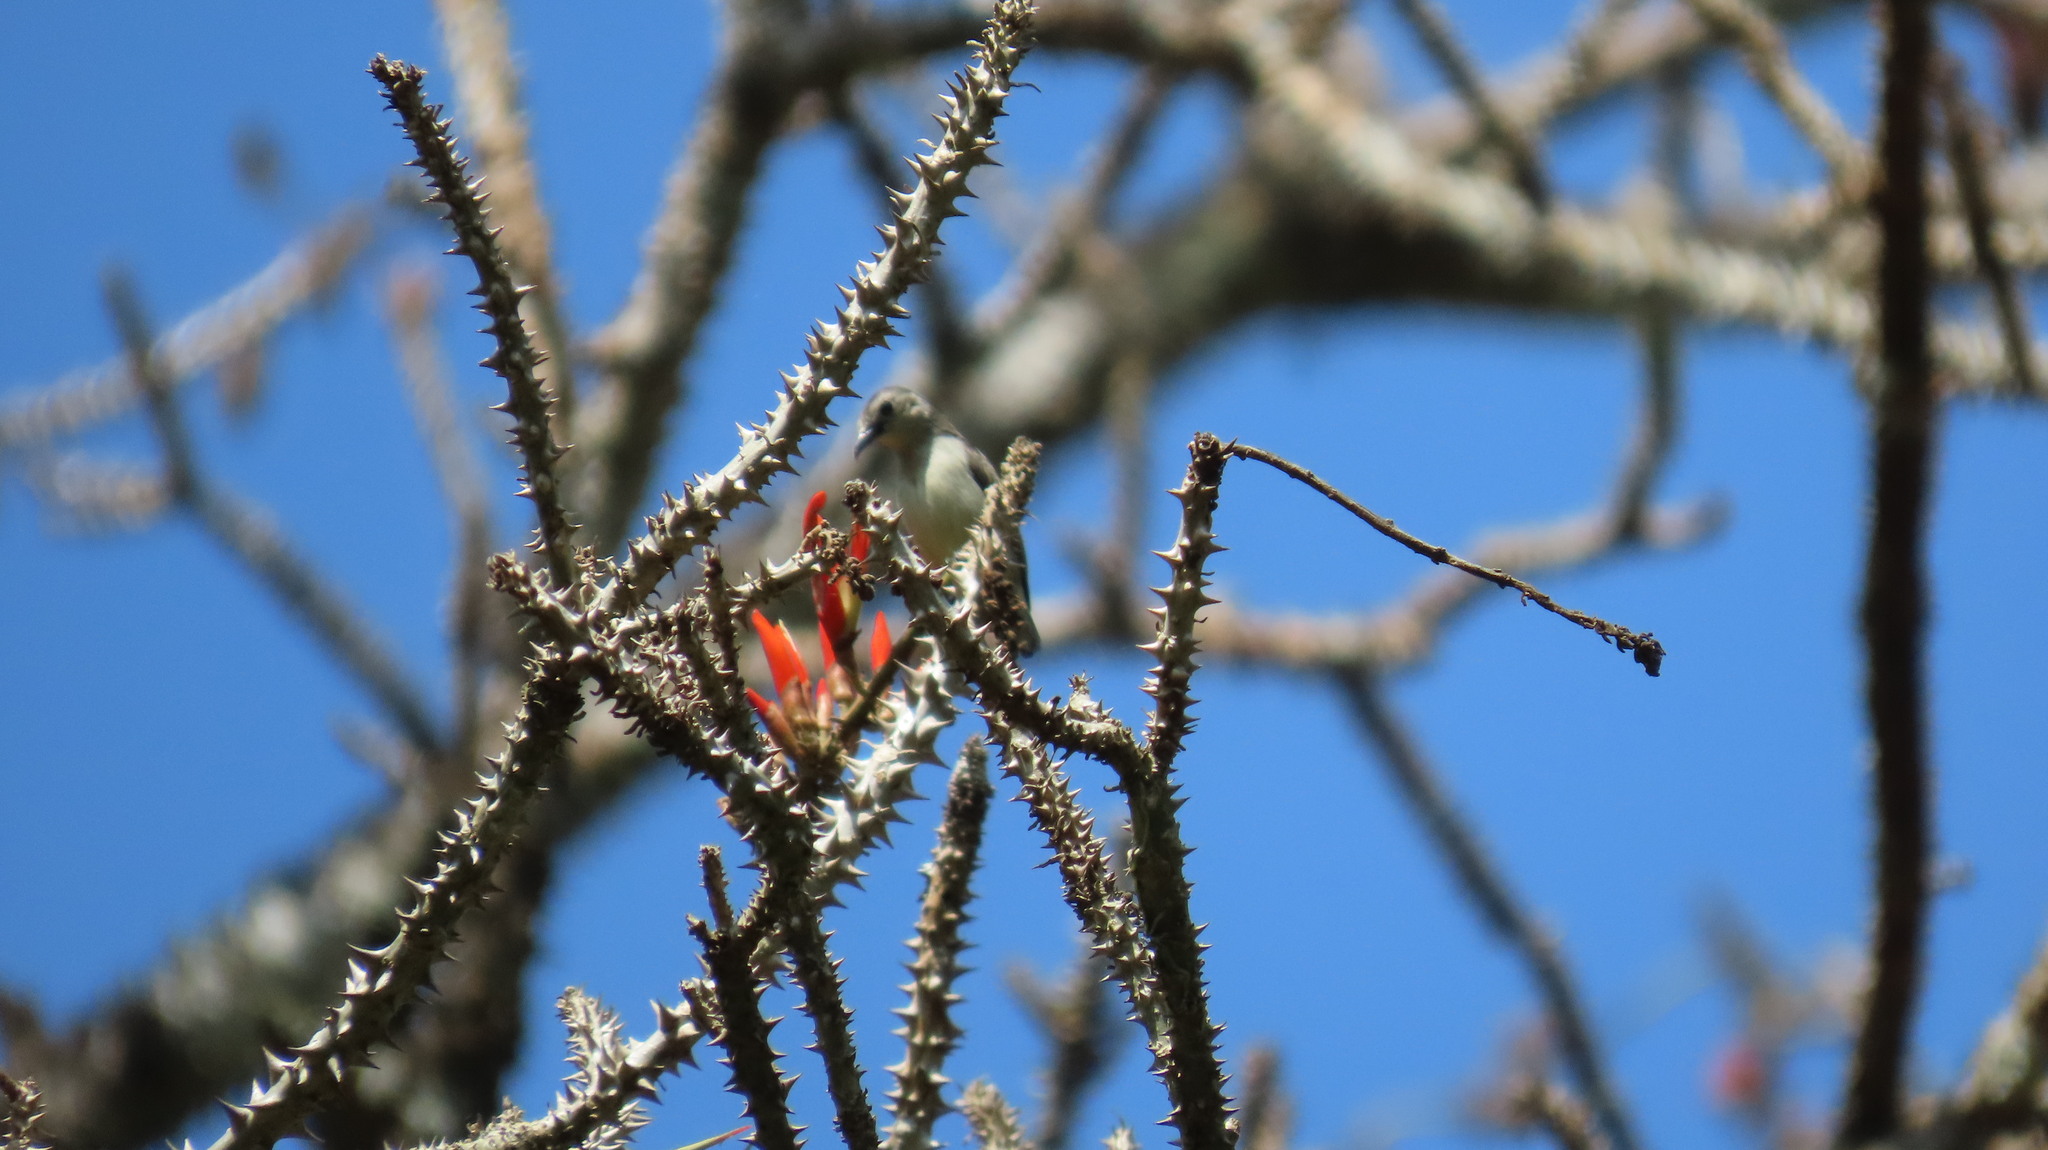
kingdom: Animalia
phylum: Chordata
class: Aves
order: Passeriformes
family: Dicaeidae
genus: Dicaeum
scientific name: Dicaeum concolor
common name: Nilgiri flowerpecker
